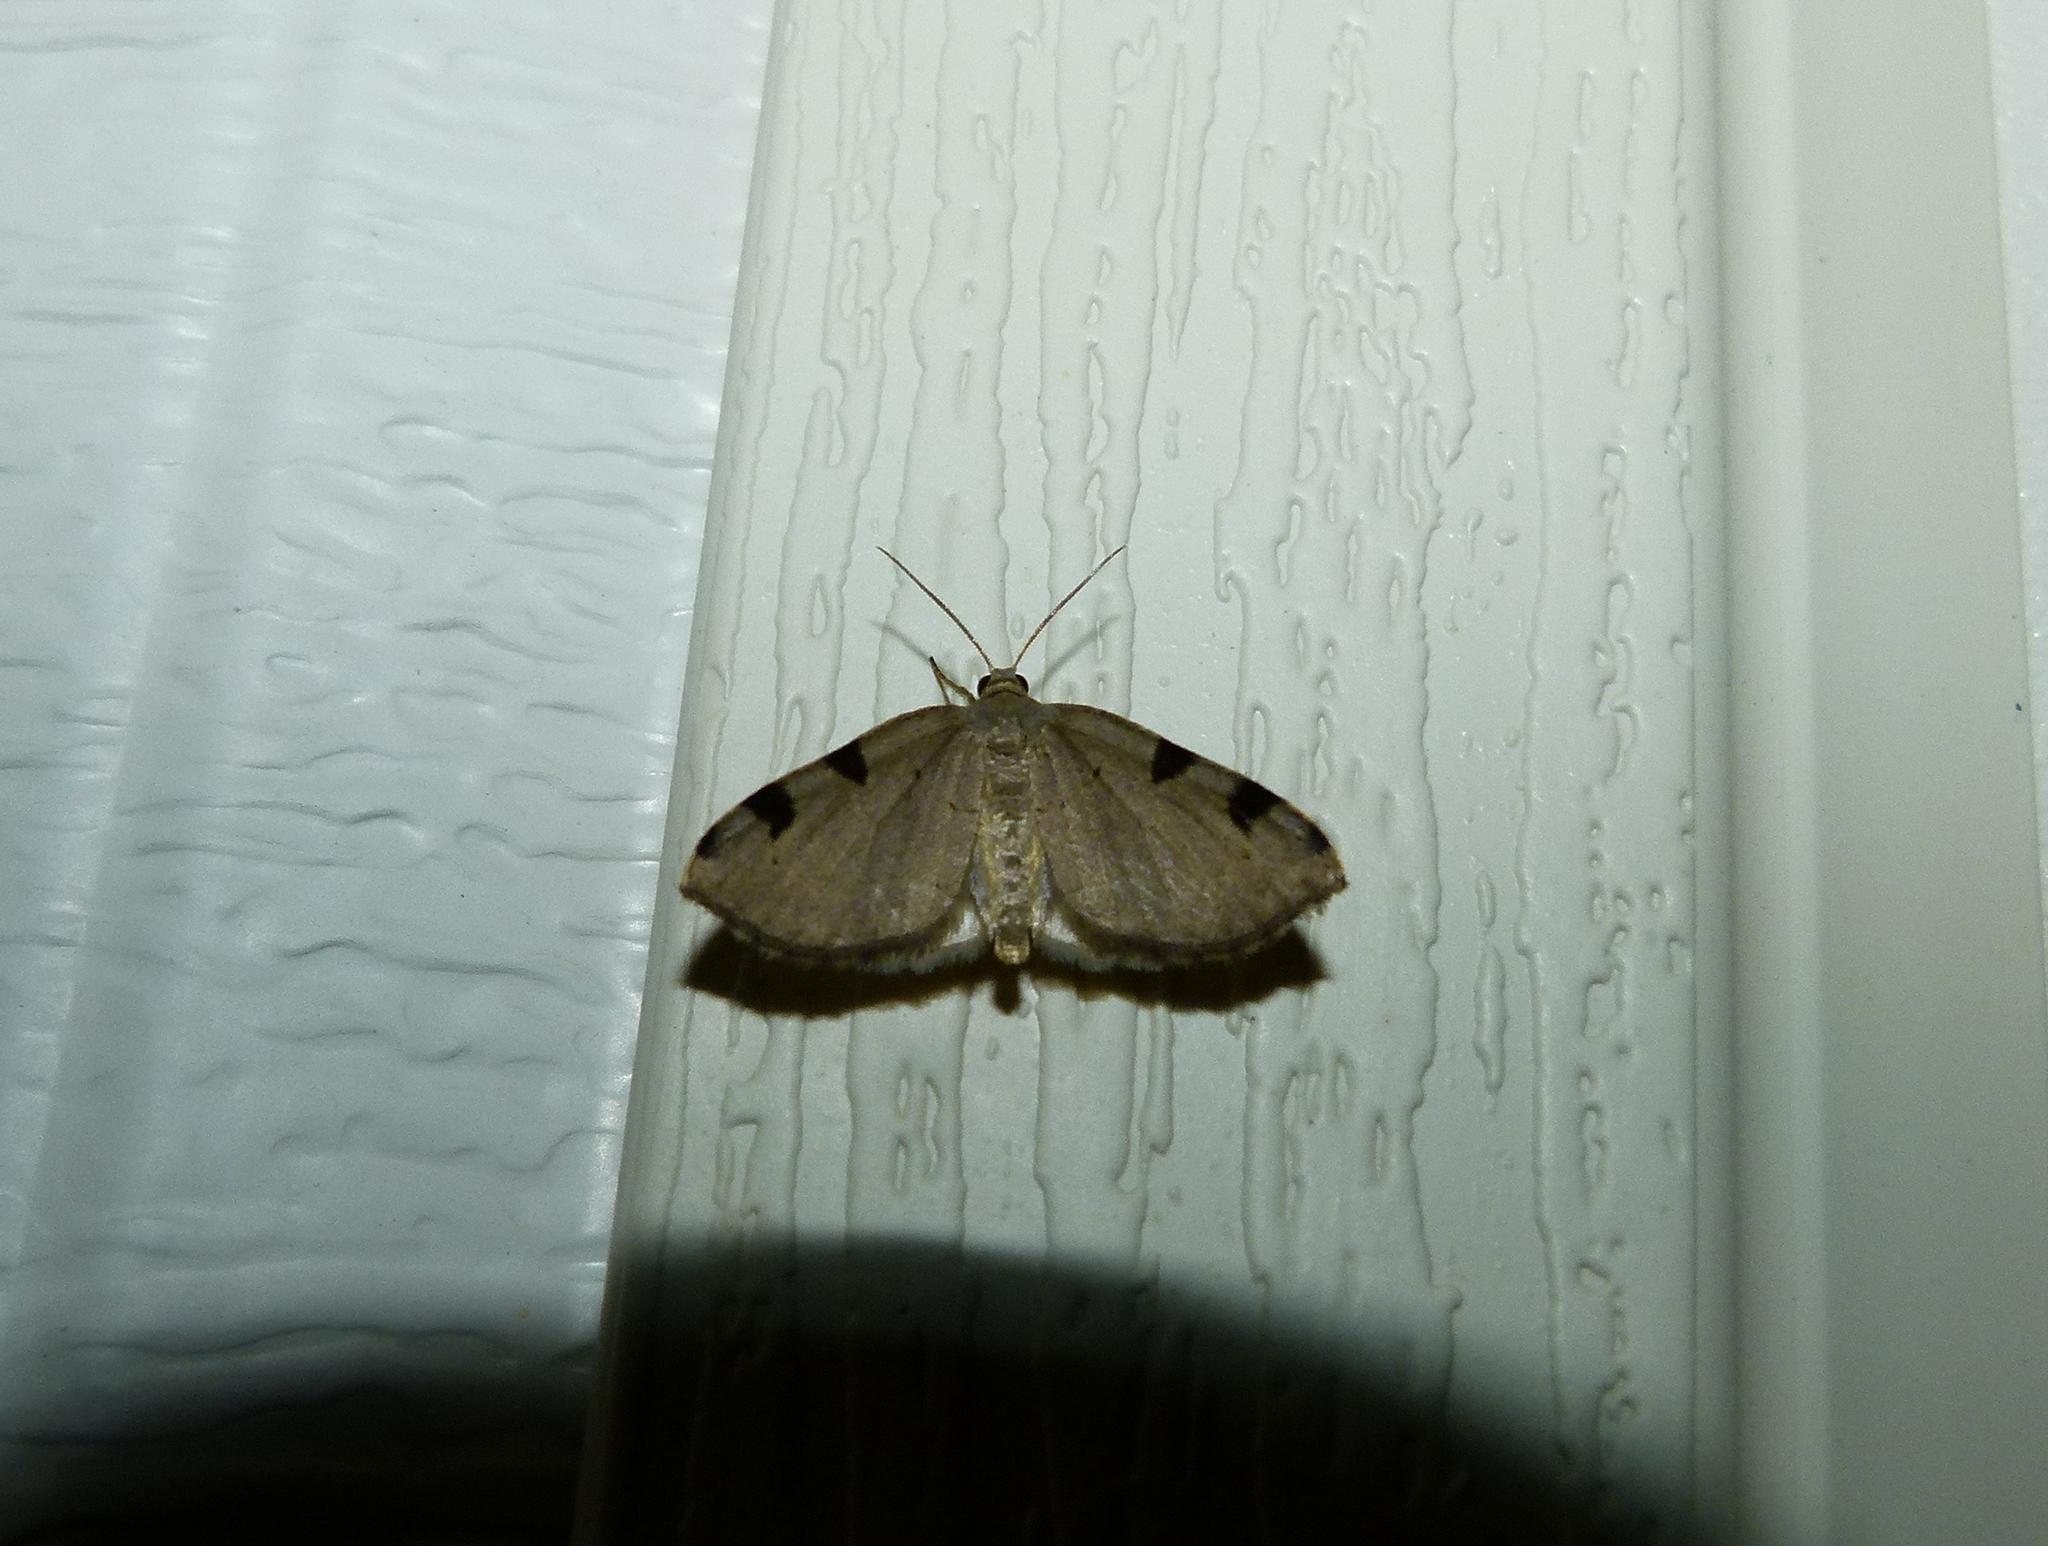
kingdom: Animalia
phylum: Arthropoda
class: Insecta
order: Lepidoptera
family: Geometridae
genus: Heterophleps
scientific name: Heterophleps triguttaria
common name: Three-spotted fillip
